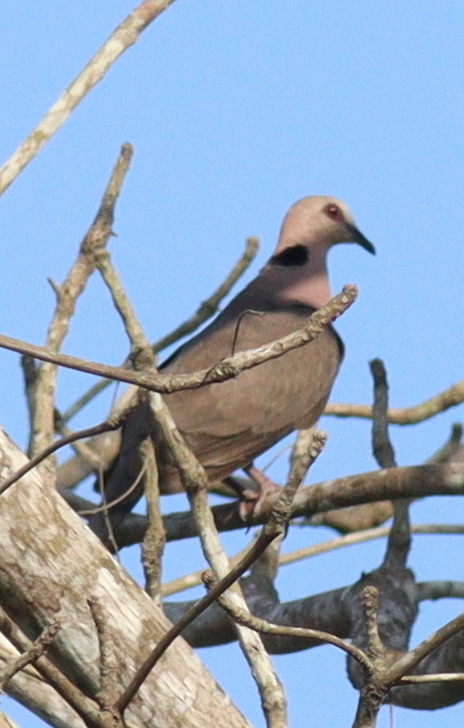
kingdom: Animalia
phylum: Chordata
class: Aves
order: Columbiformes
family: Columbidae
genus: Streptopelia
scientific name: Streptopelia semitorquata
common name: Red-eyed dove
